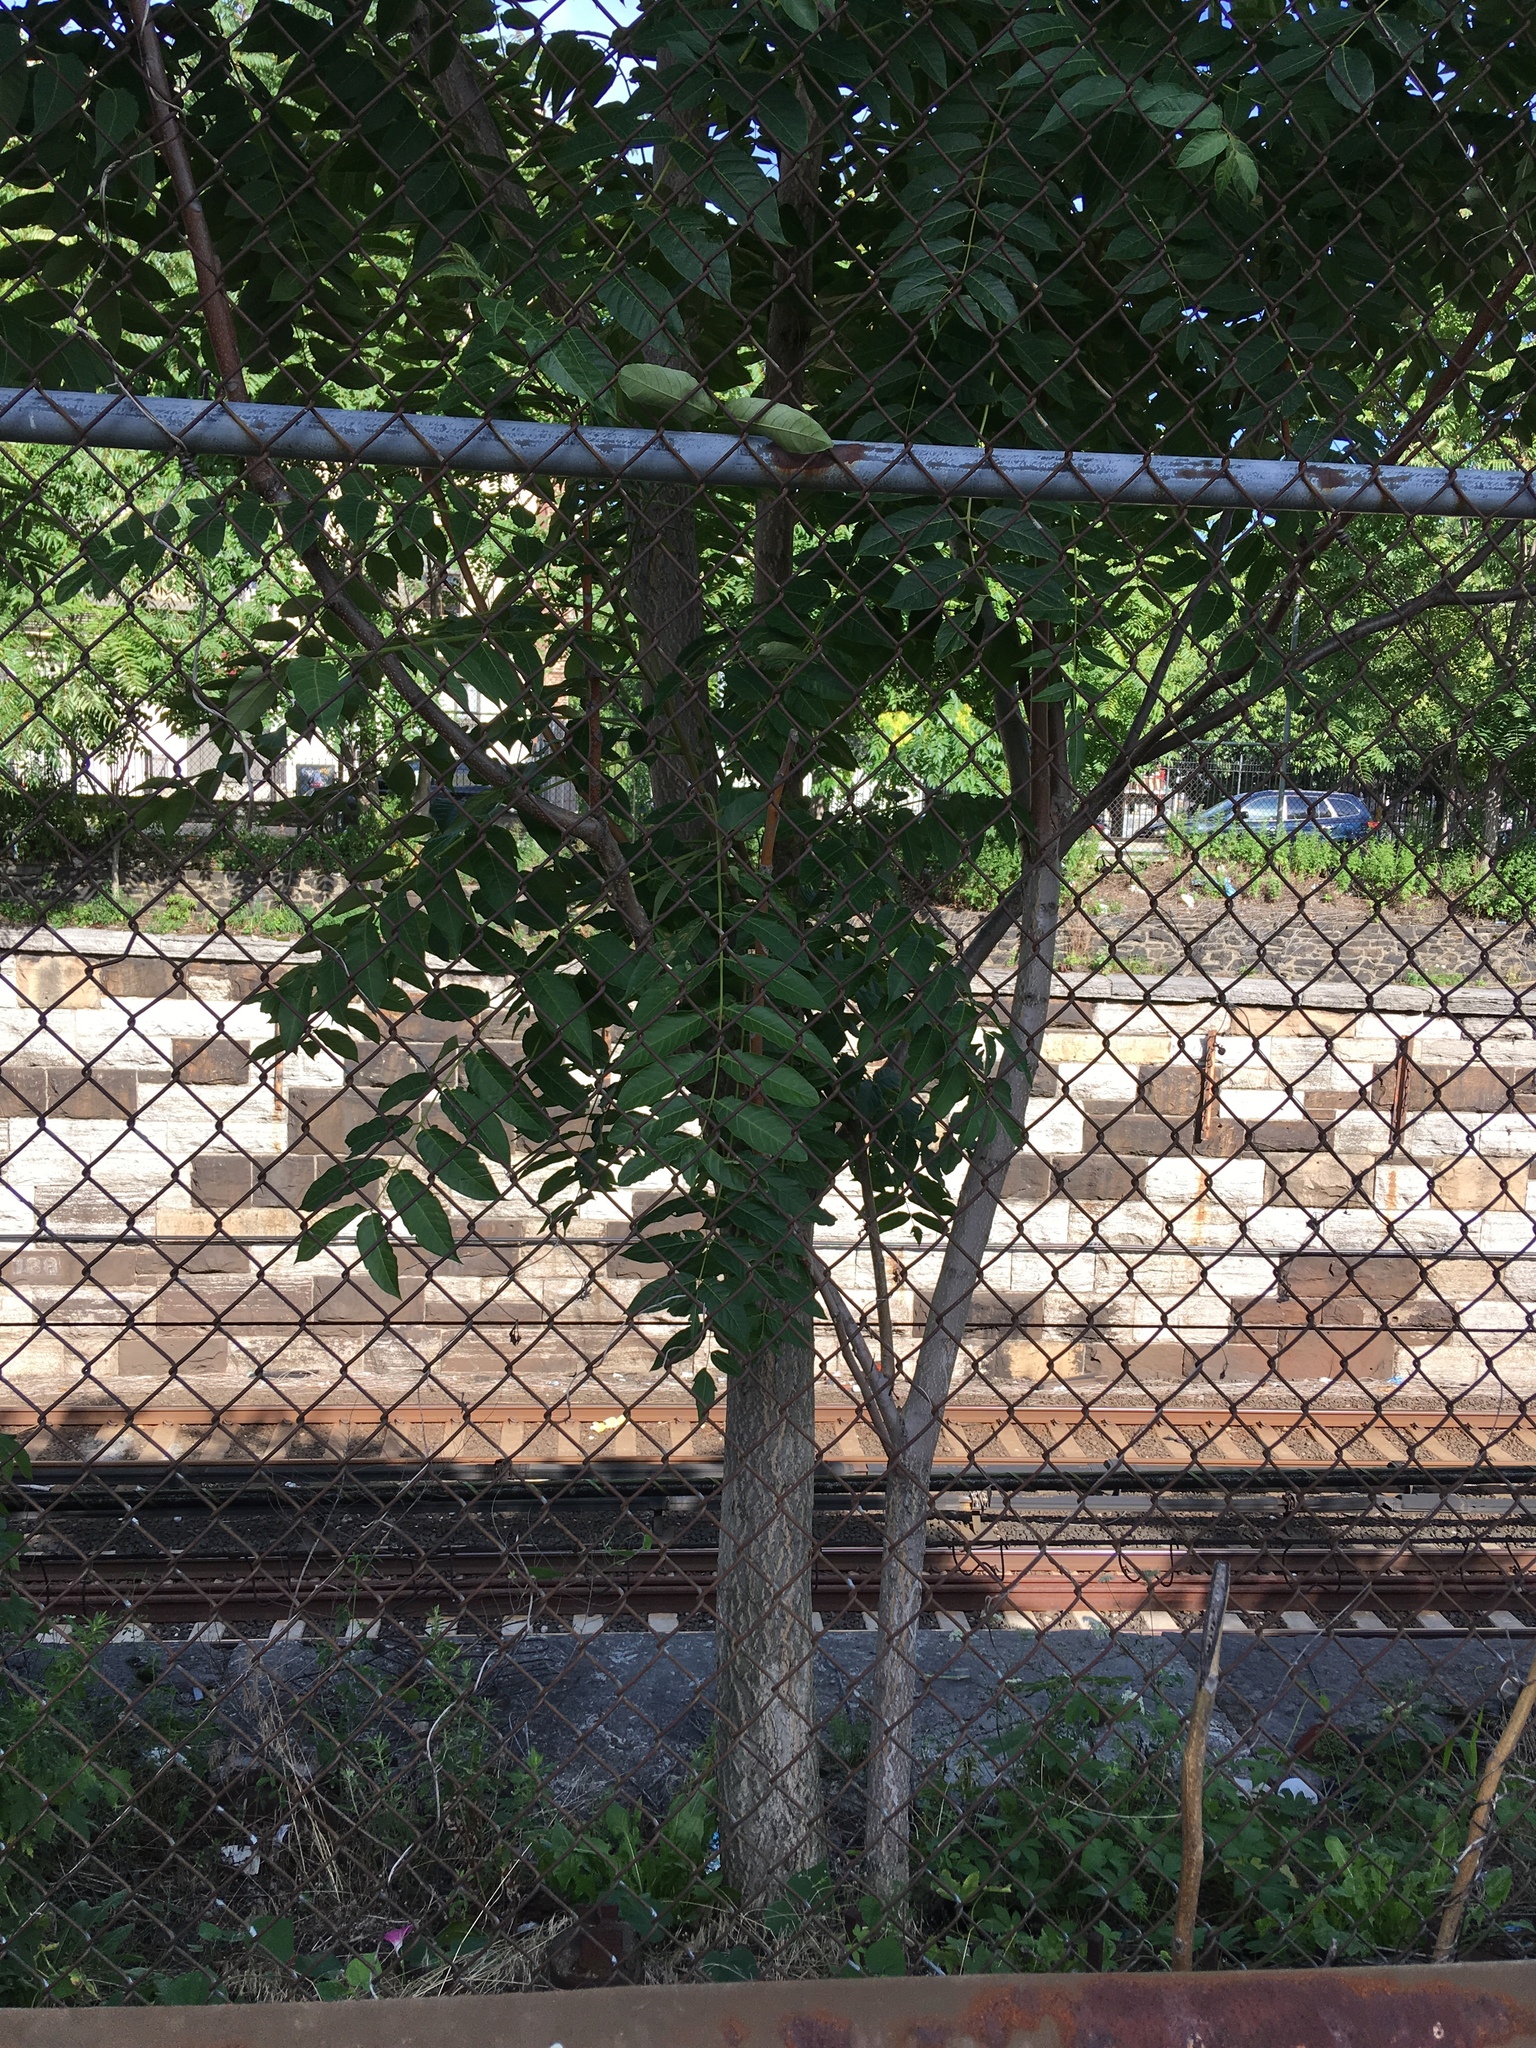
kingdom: Plantae
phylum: Tracheophyta
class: Magnoliopsida
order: Sapindales
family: Simaroubaceae
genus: Ailanthus
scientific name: Ailanthus altissima
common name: Tree-of-heaven
